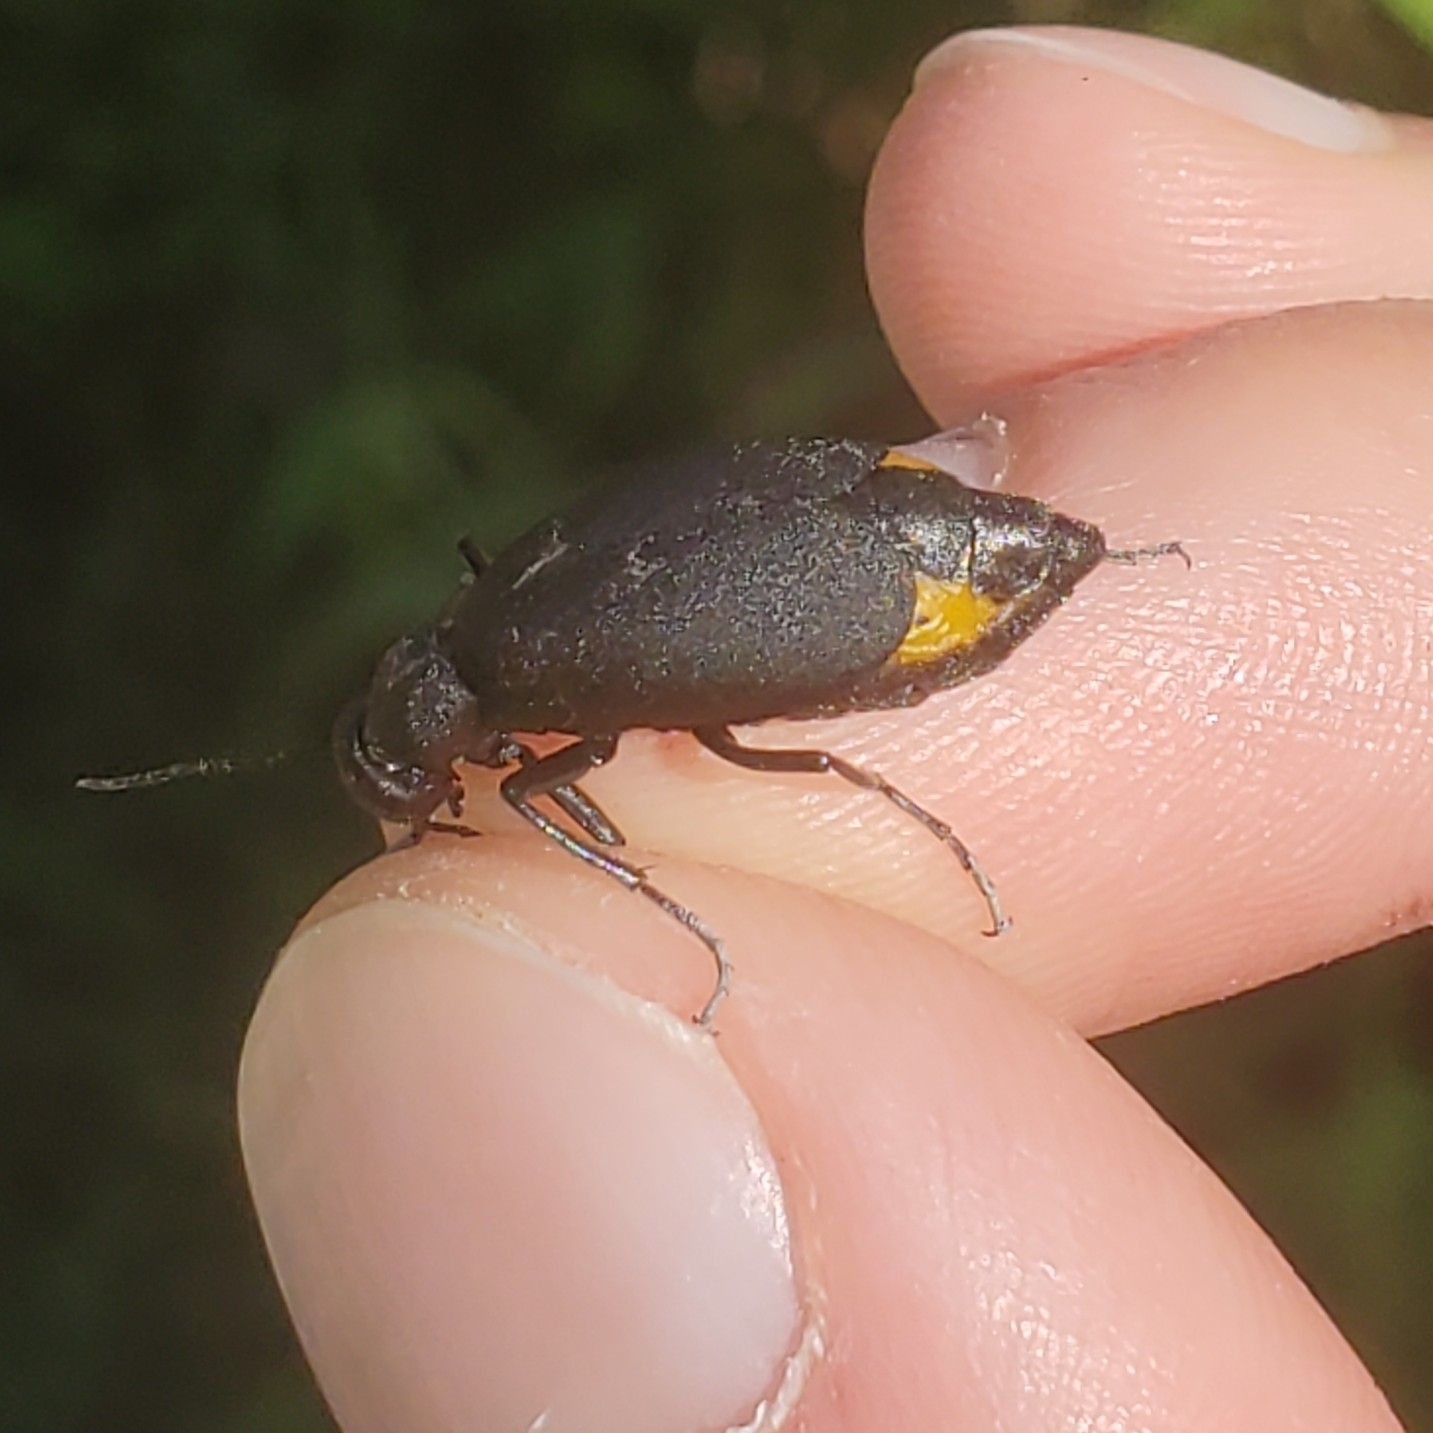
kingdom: Animalia
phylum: Arthropoda
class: Insecta
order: Coleoptera
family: Meloidae
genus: Epicauta
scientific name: Epicauta conferta
